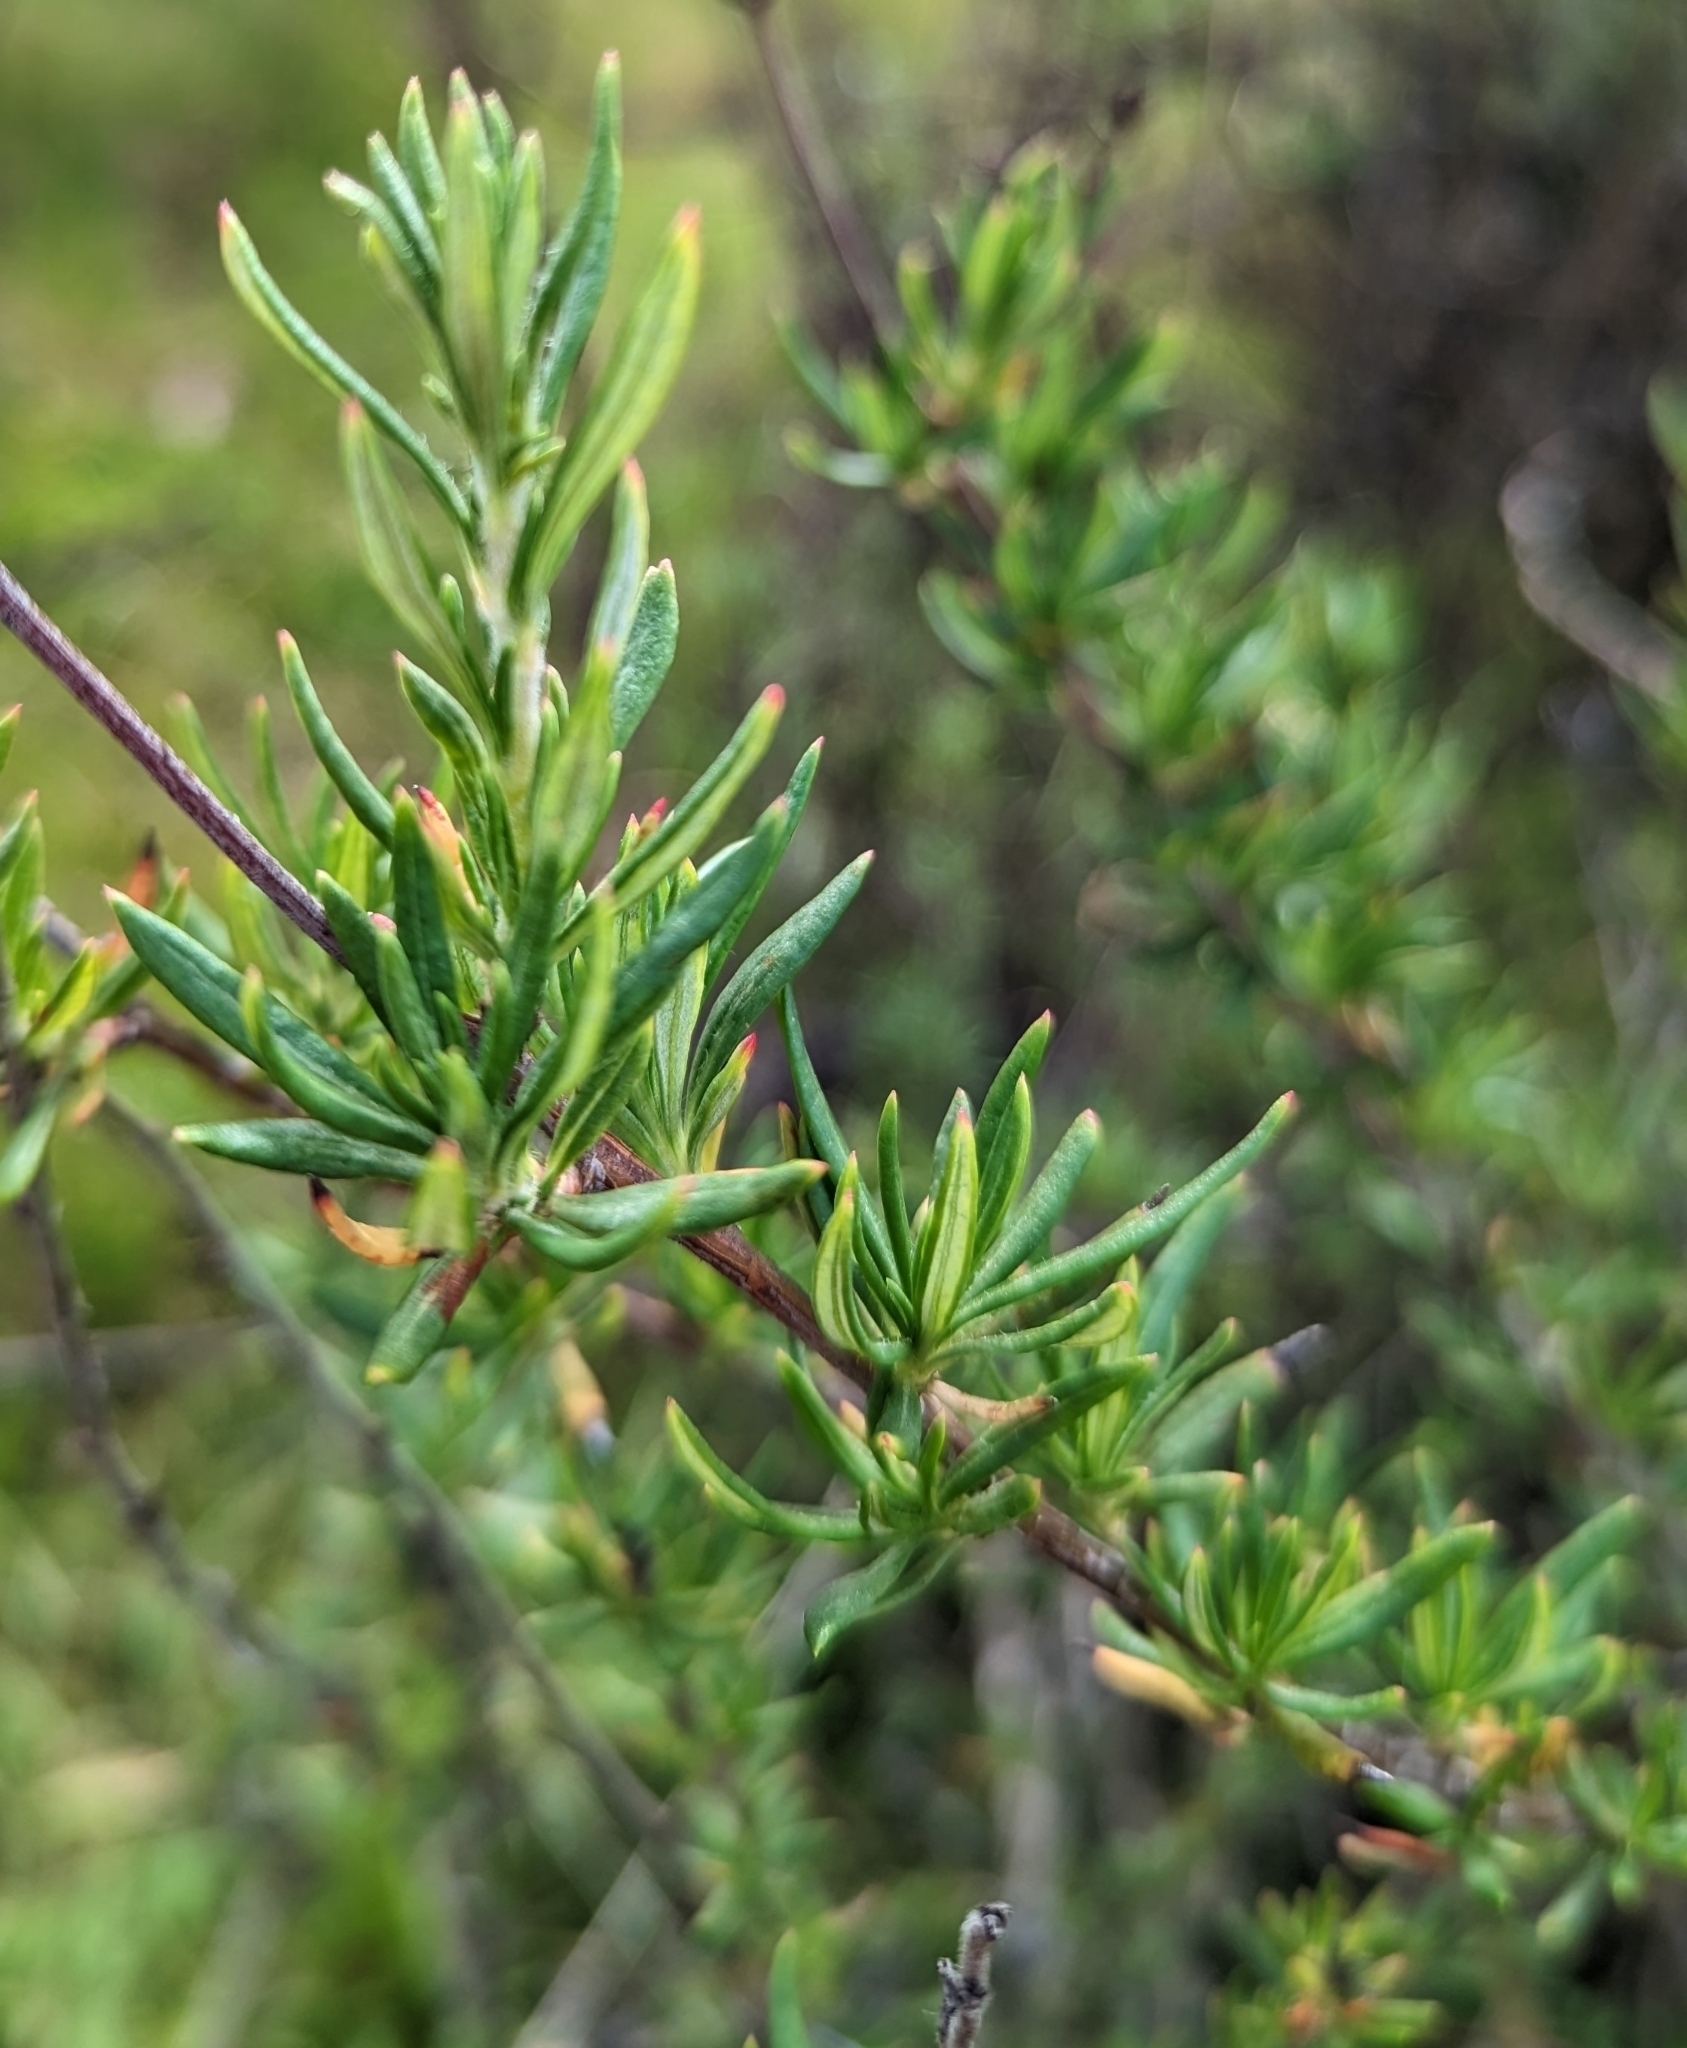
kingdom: Plantae
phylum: Tracheophyta
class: Magnoliopsida
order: Caryophyllales
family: Polygonaceae
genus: Eriogonum
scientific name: Eriogonum fasciculatum
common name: California wild buckwheat
